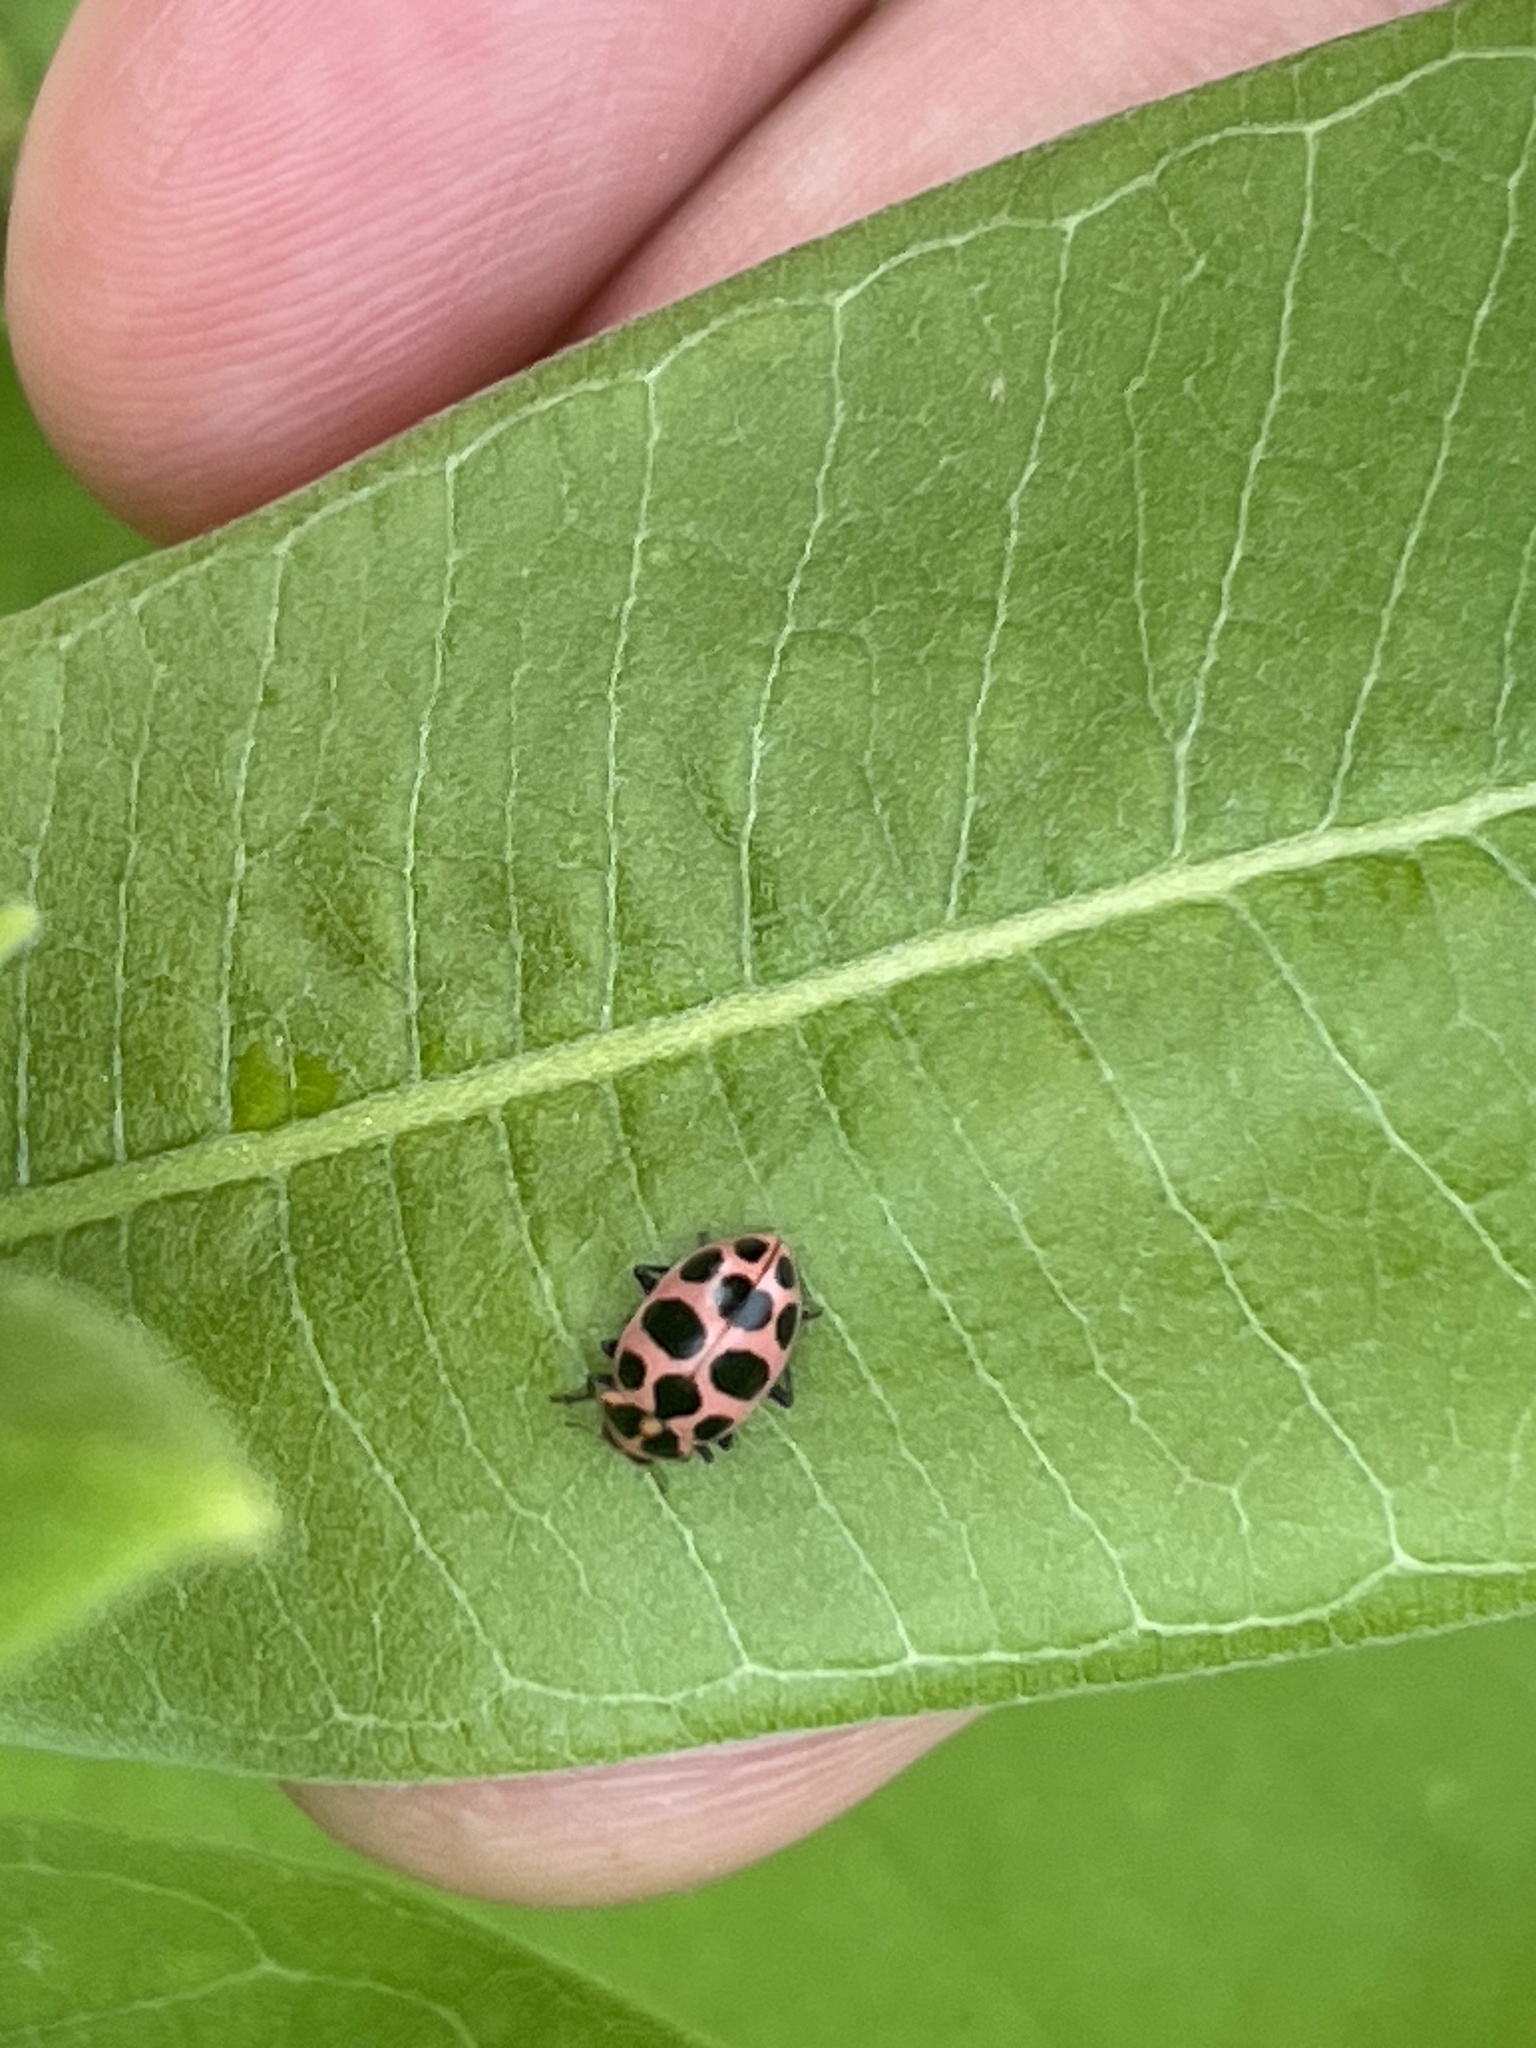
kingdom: Animalia
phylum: Arthropoda
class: Insecta
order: Coleoptera
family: Coccinellidae
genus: Coleomegilla
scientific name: Coleomegilla maculata
